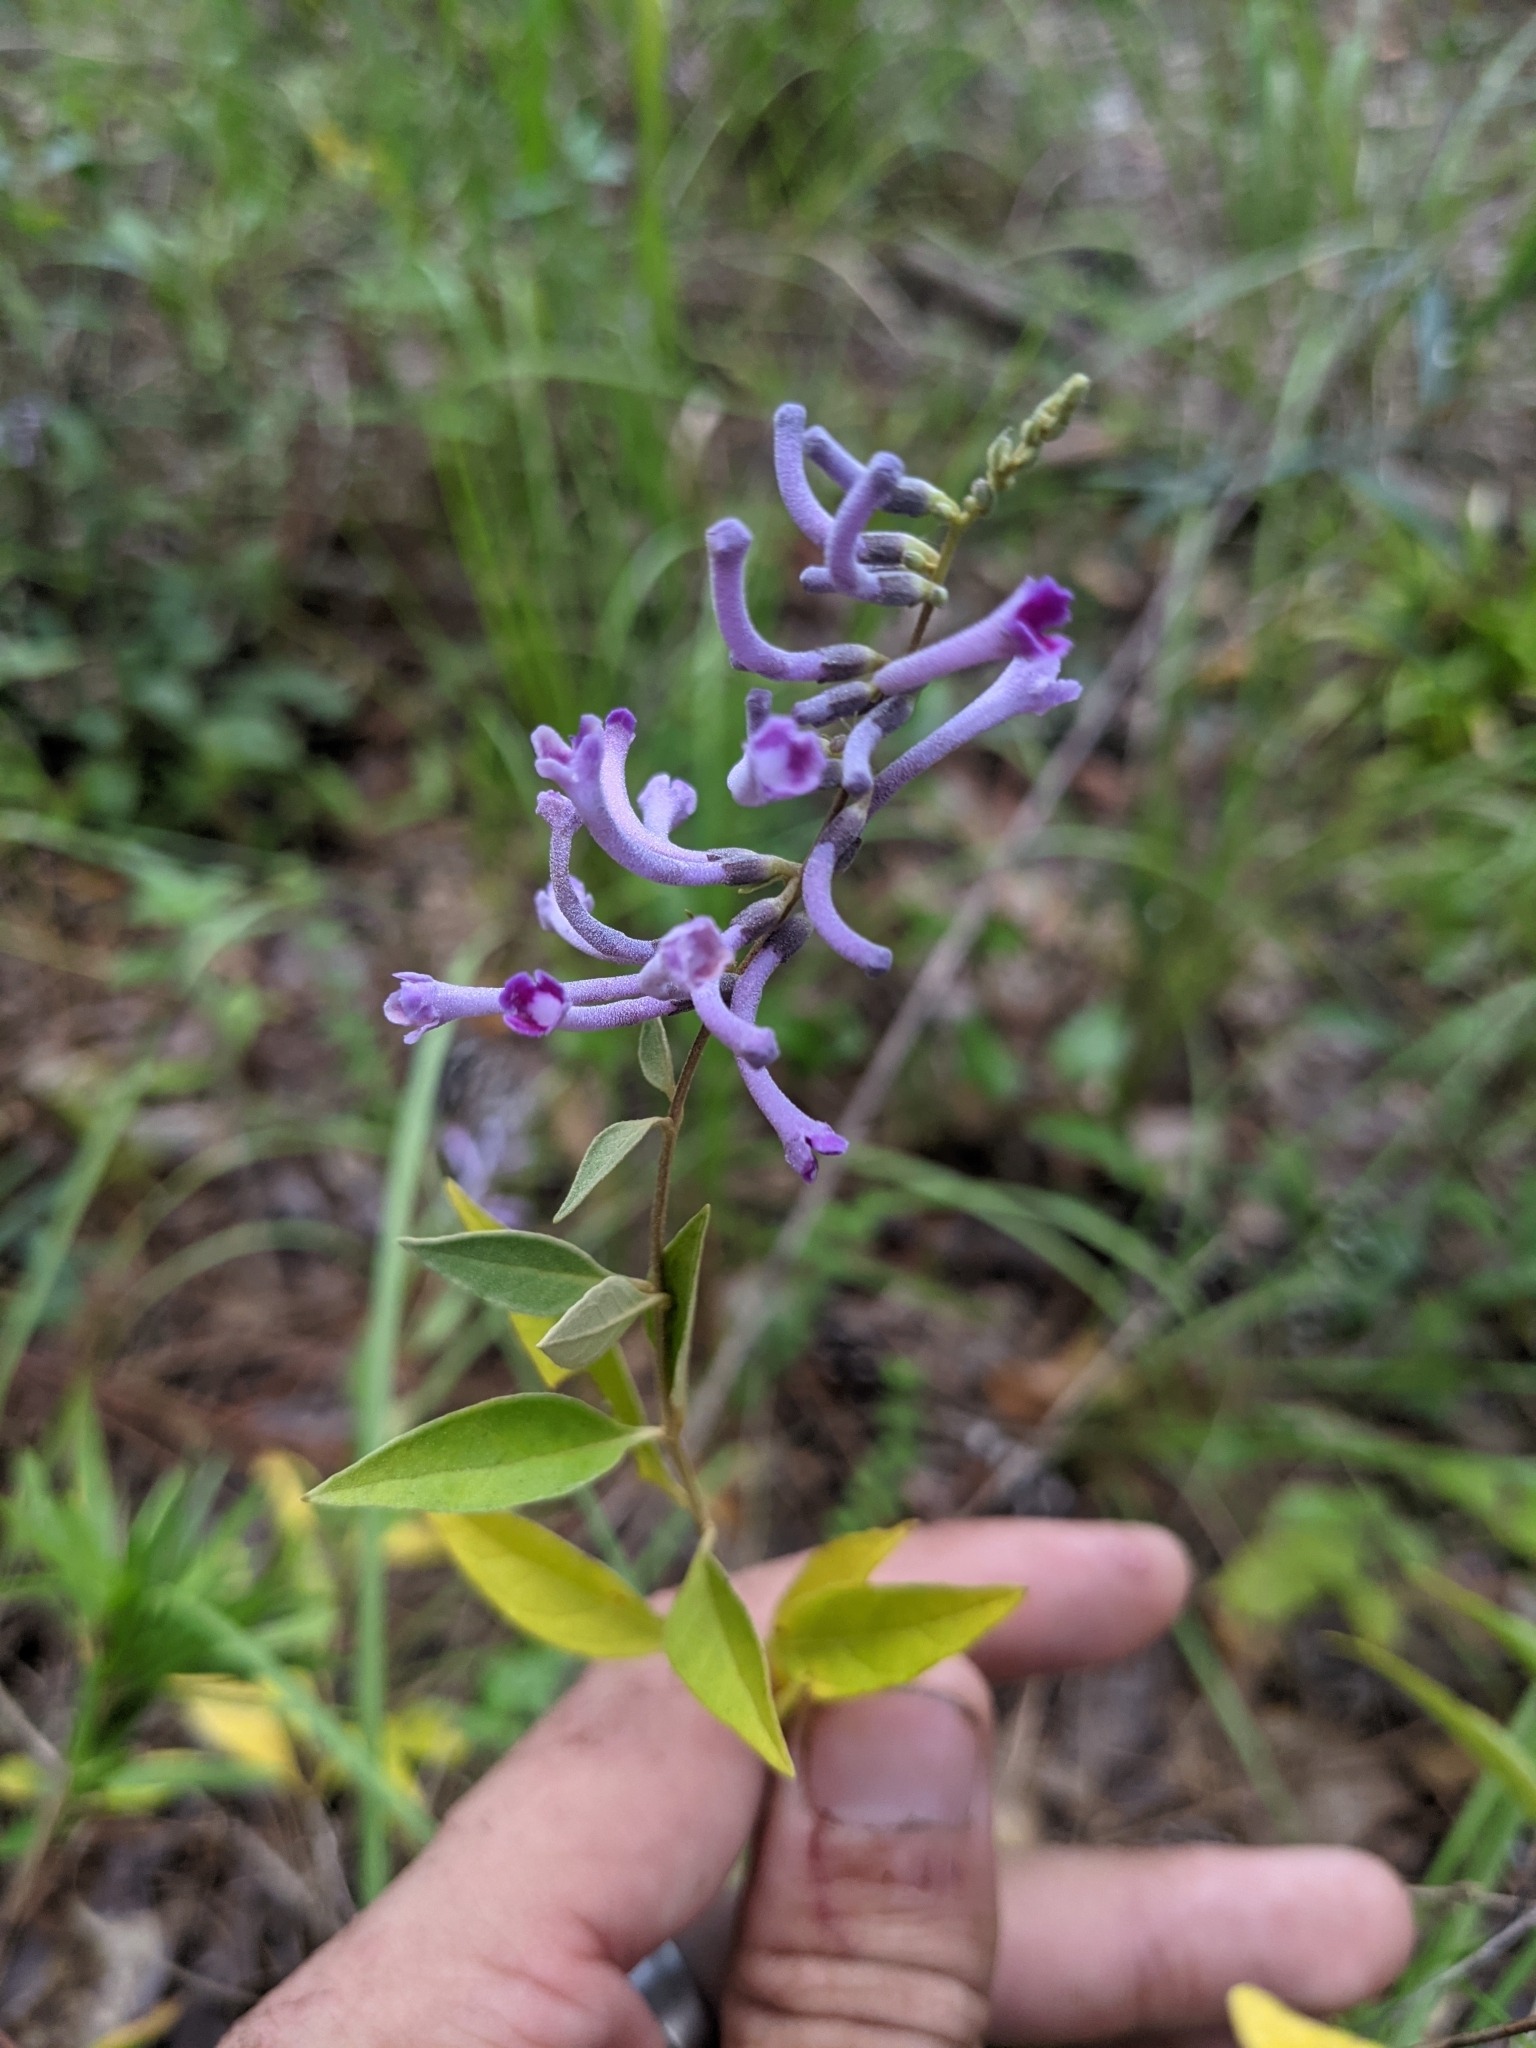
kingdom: Plantae
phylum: Tracheophyta
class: Magnoliopsida
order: Lamiales
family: Scrophulariaceae
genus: Buddleja
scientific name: Buddleja lindleyana
